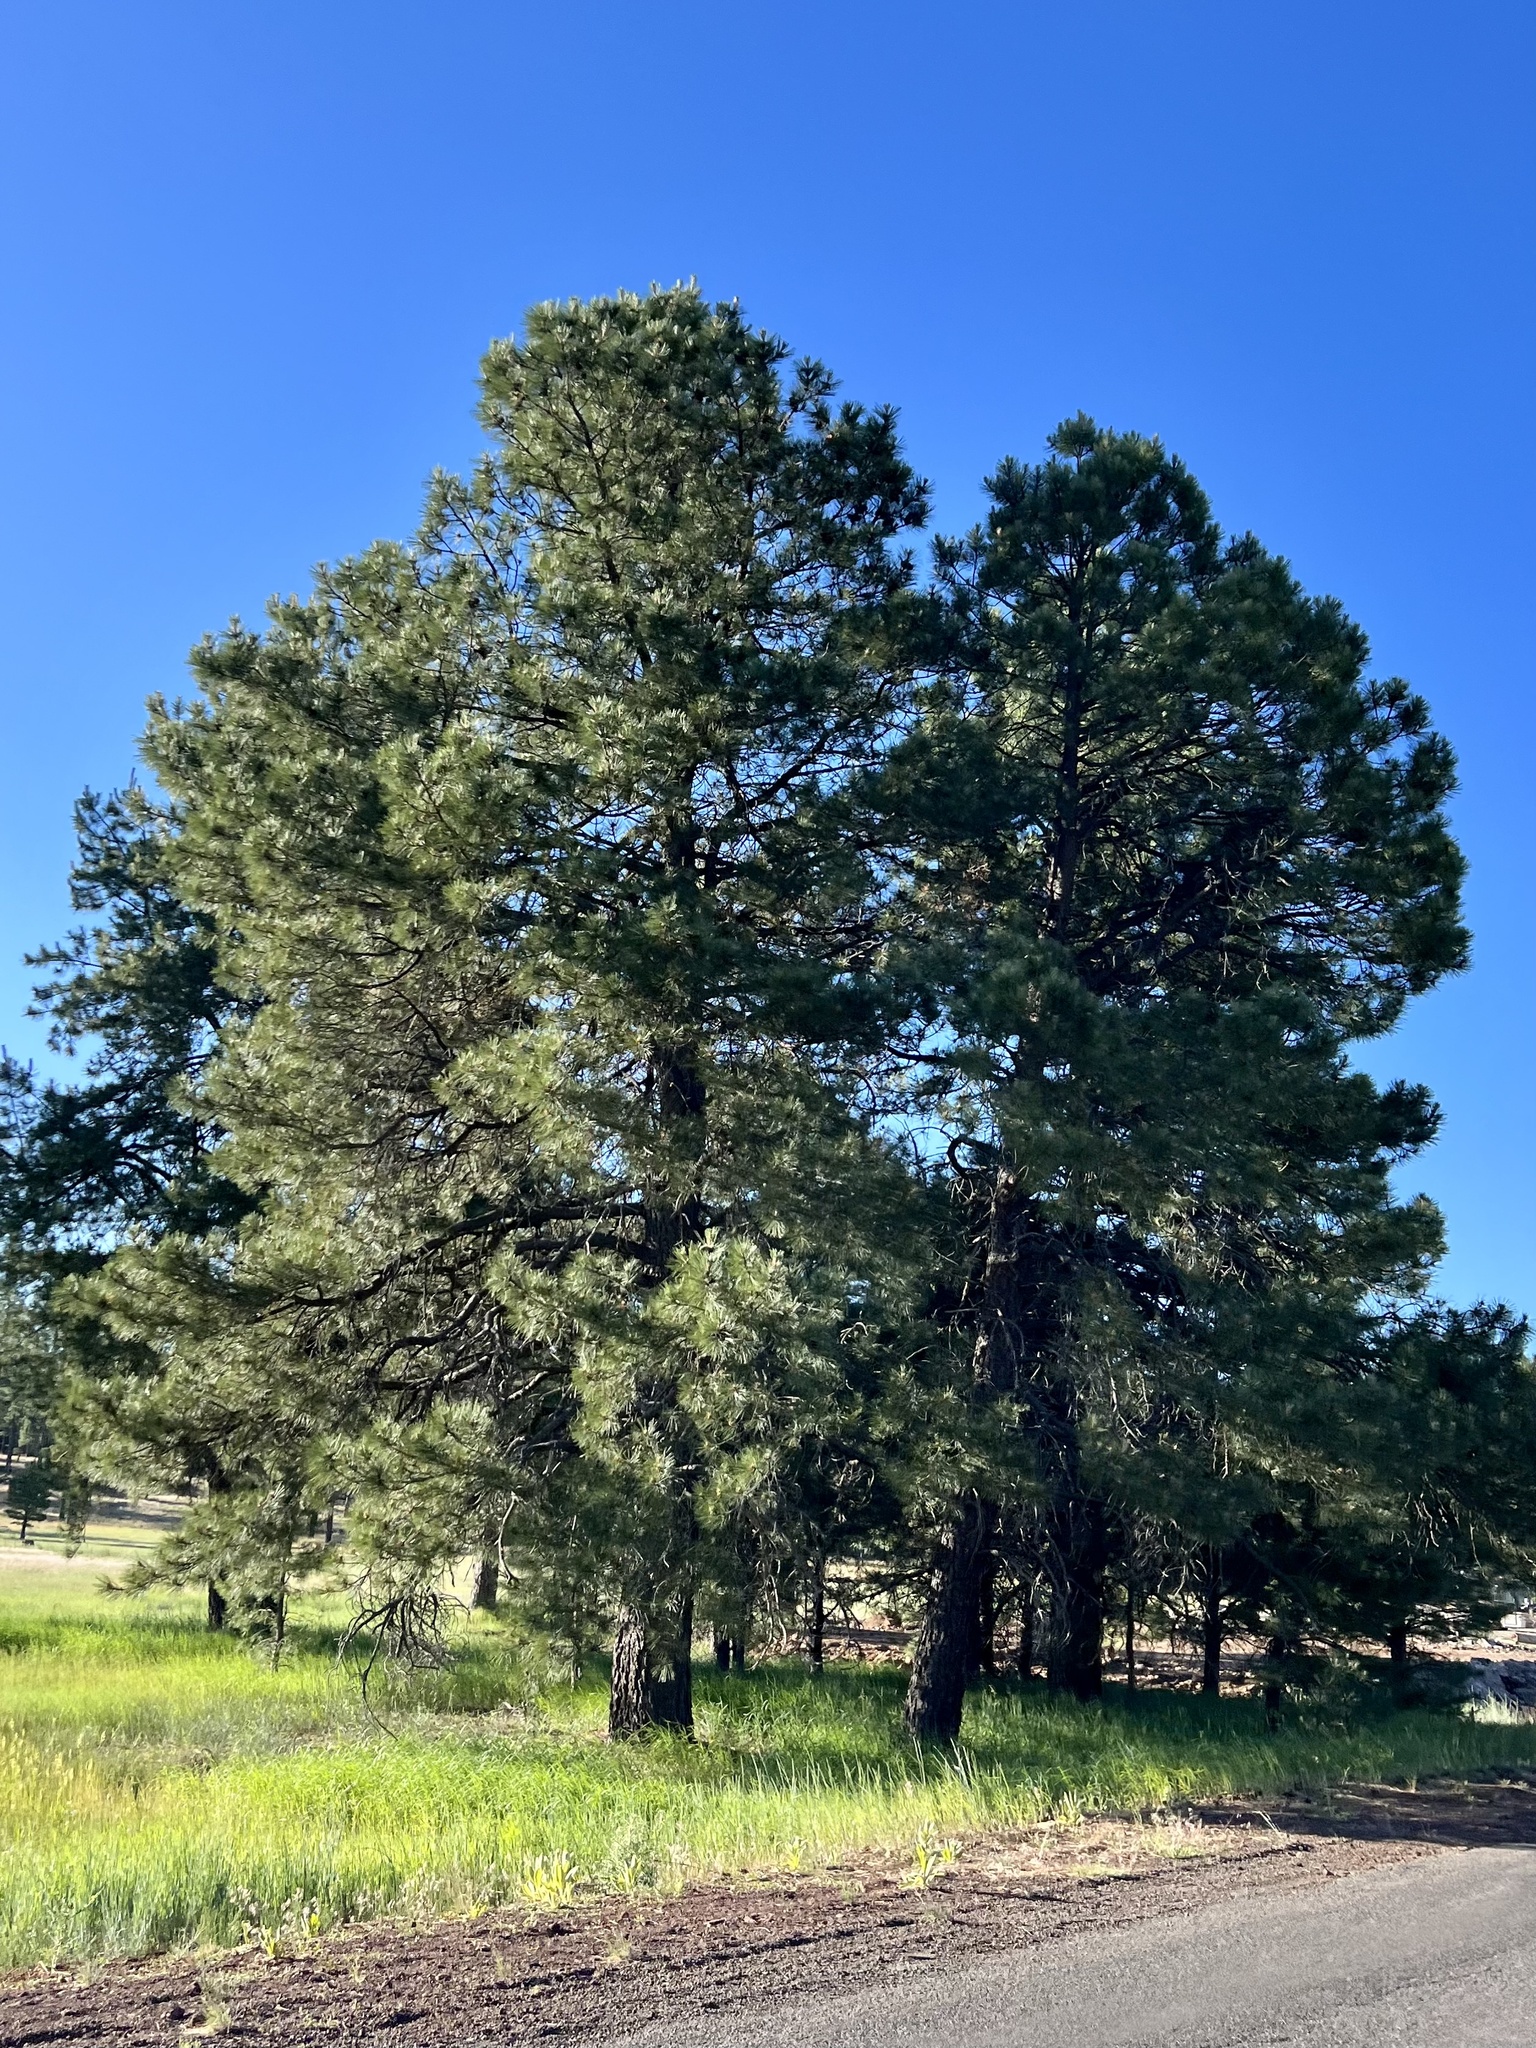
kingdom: Plantae
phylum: Tracheophyta
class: Pinopsida
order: Pinales
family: Pinaceae
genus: Pinus
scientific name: Pinus ponderosa
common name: Western yellow-pine
